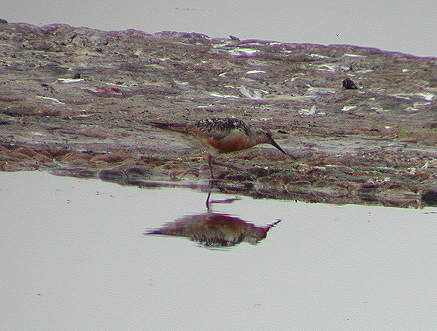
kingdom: Animalia
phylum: Chordata
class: Aves
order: Charadriiformes
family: Scolopacidae
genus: Calidris
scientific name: Calidris canutus
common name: Red knot
